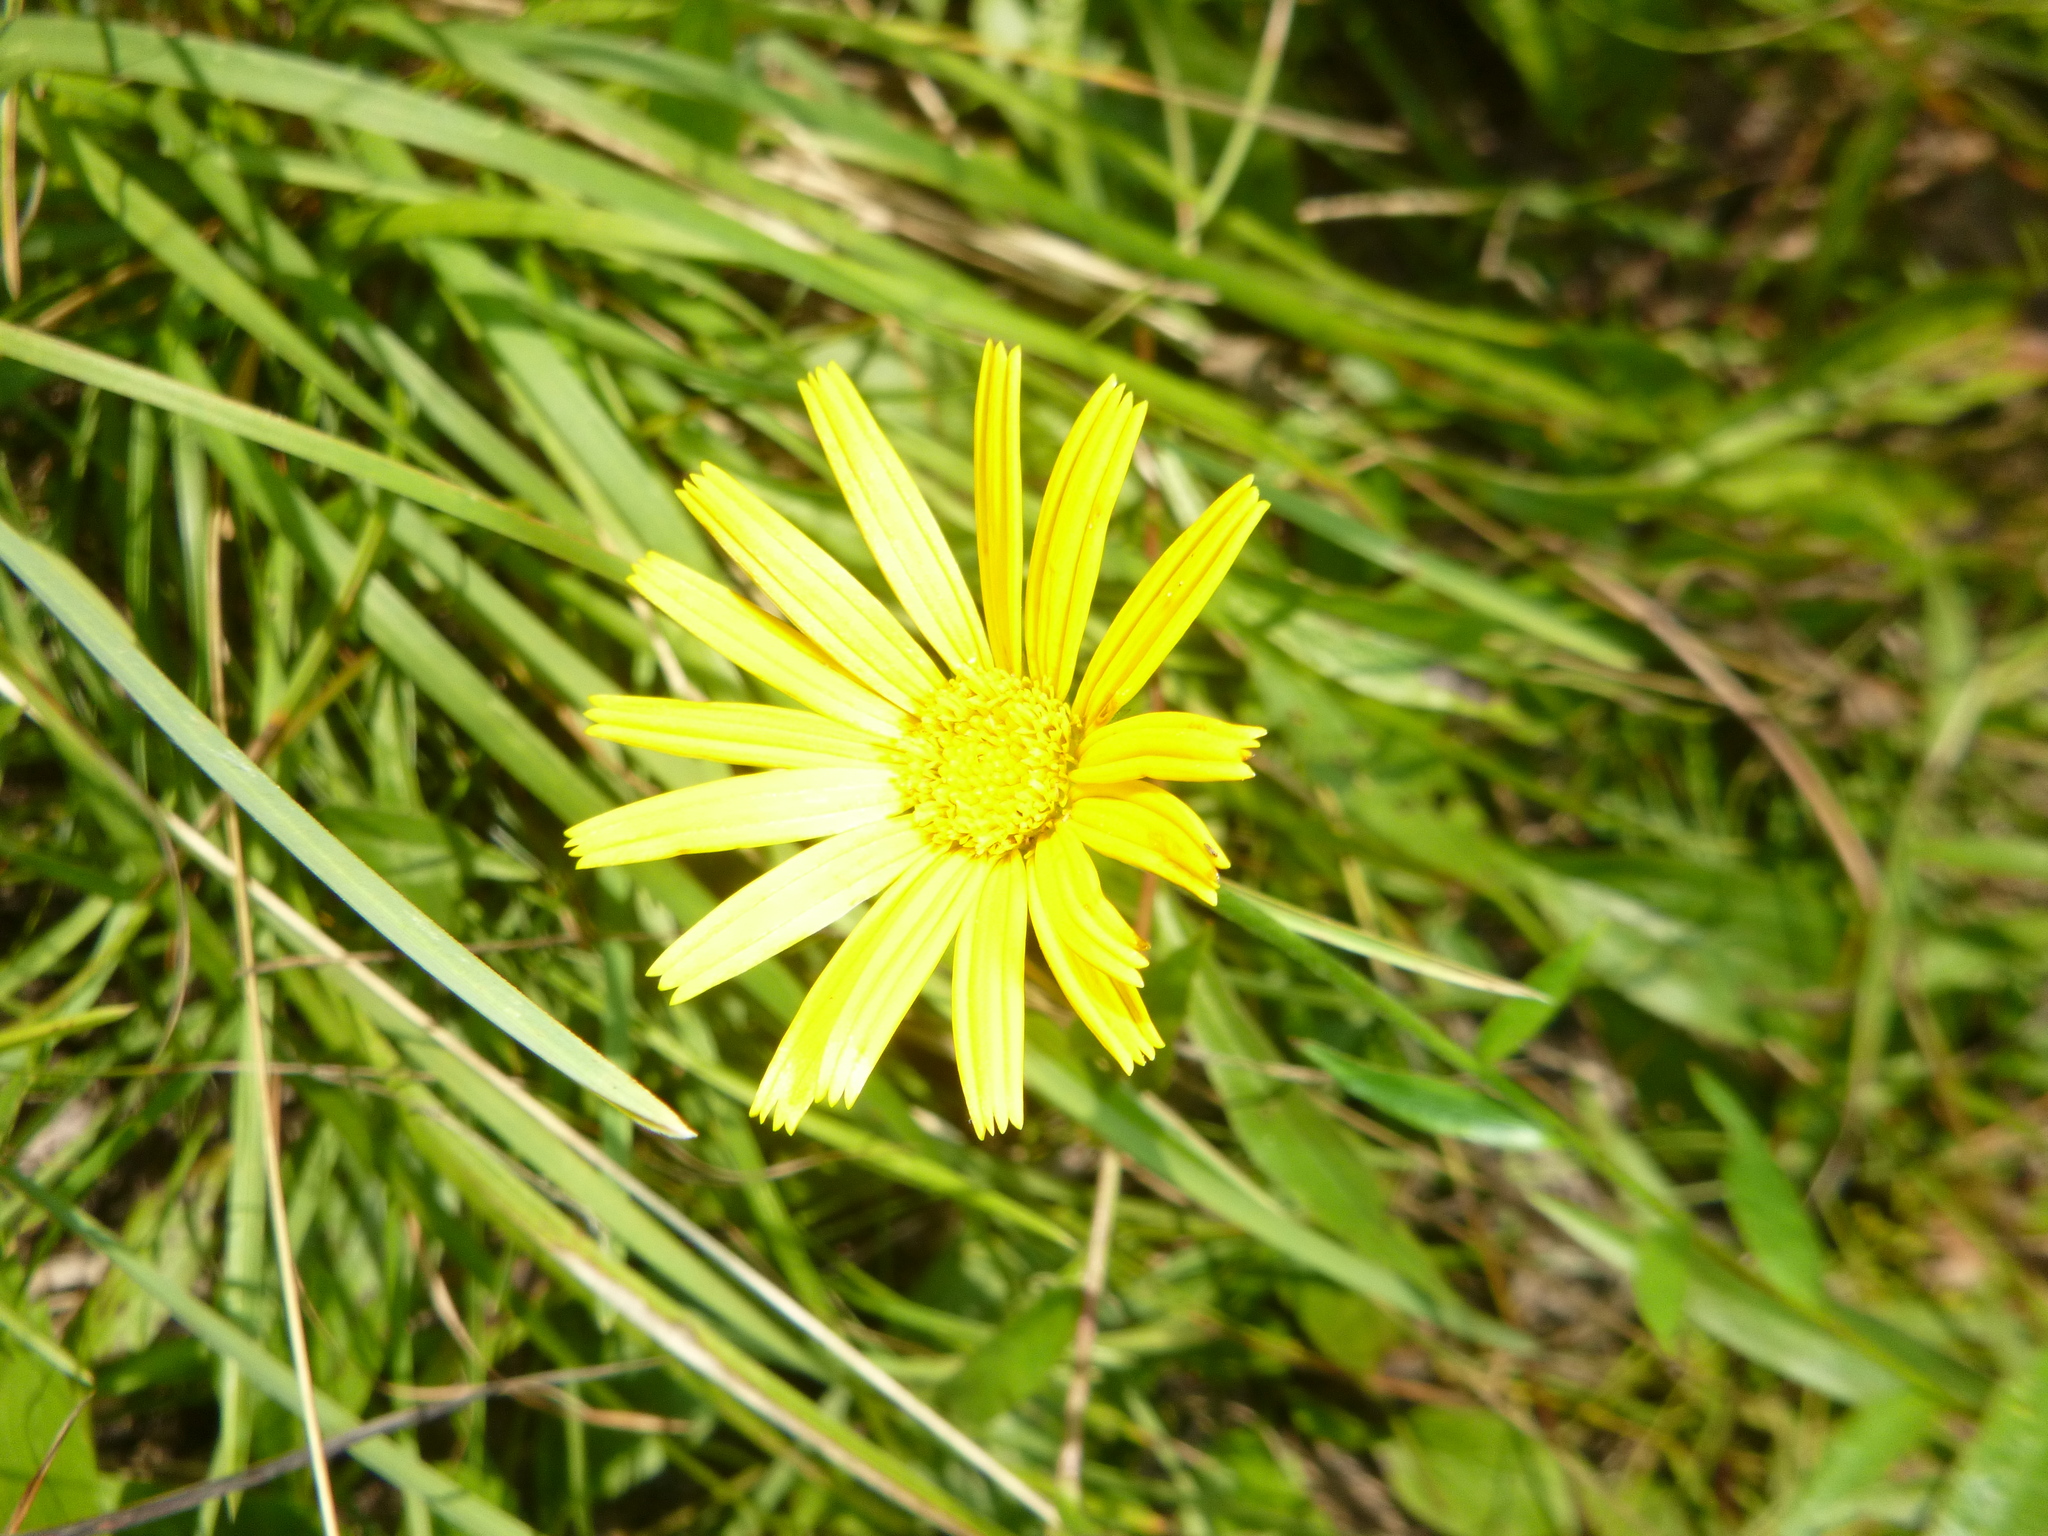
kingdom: Plantae
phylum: Tracheophyta
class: Magnoliopsida
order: Asterales
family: Asteraceae
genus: Buphthalmum
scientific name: Buphthalmum salicifolium
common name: Willow-leaved yellow-oxeye
